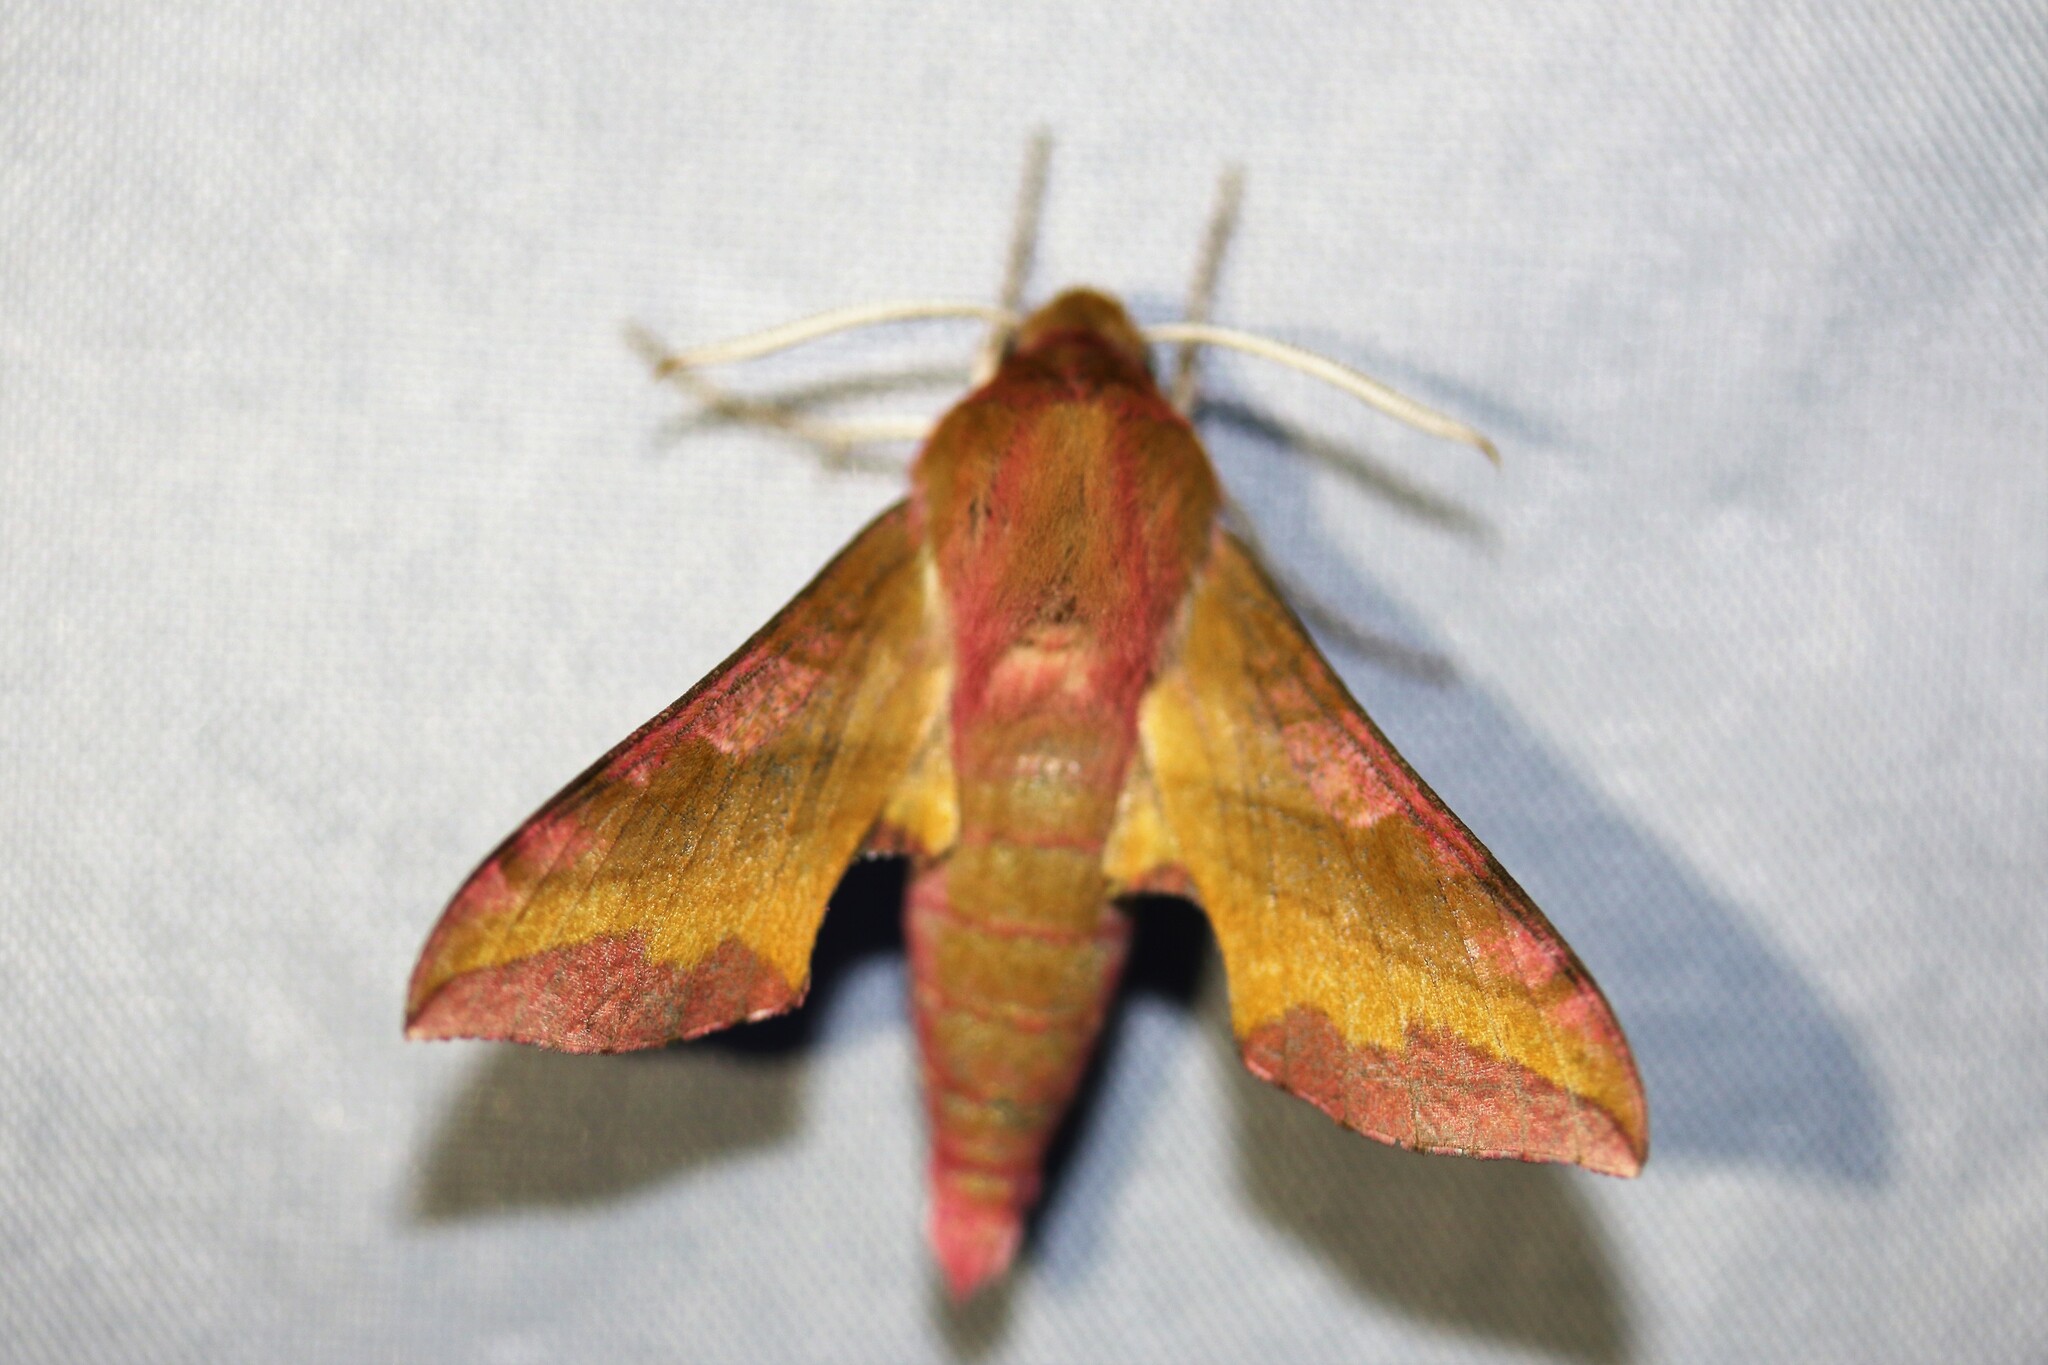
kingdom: Animalia
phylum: Arthropoda
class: Insecta
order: Lepidoptera
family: Sphingidae
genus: Deilephila
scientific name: Deilephila porcellus
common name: Small elephant hawk-moth
